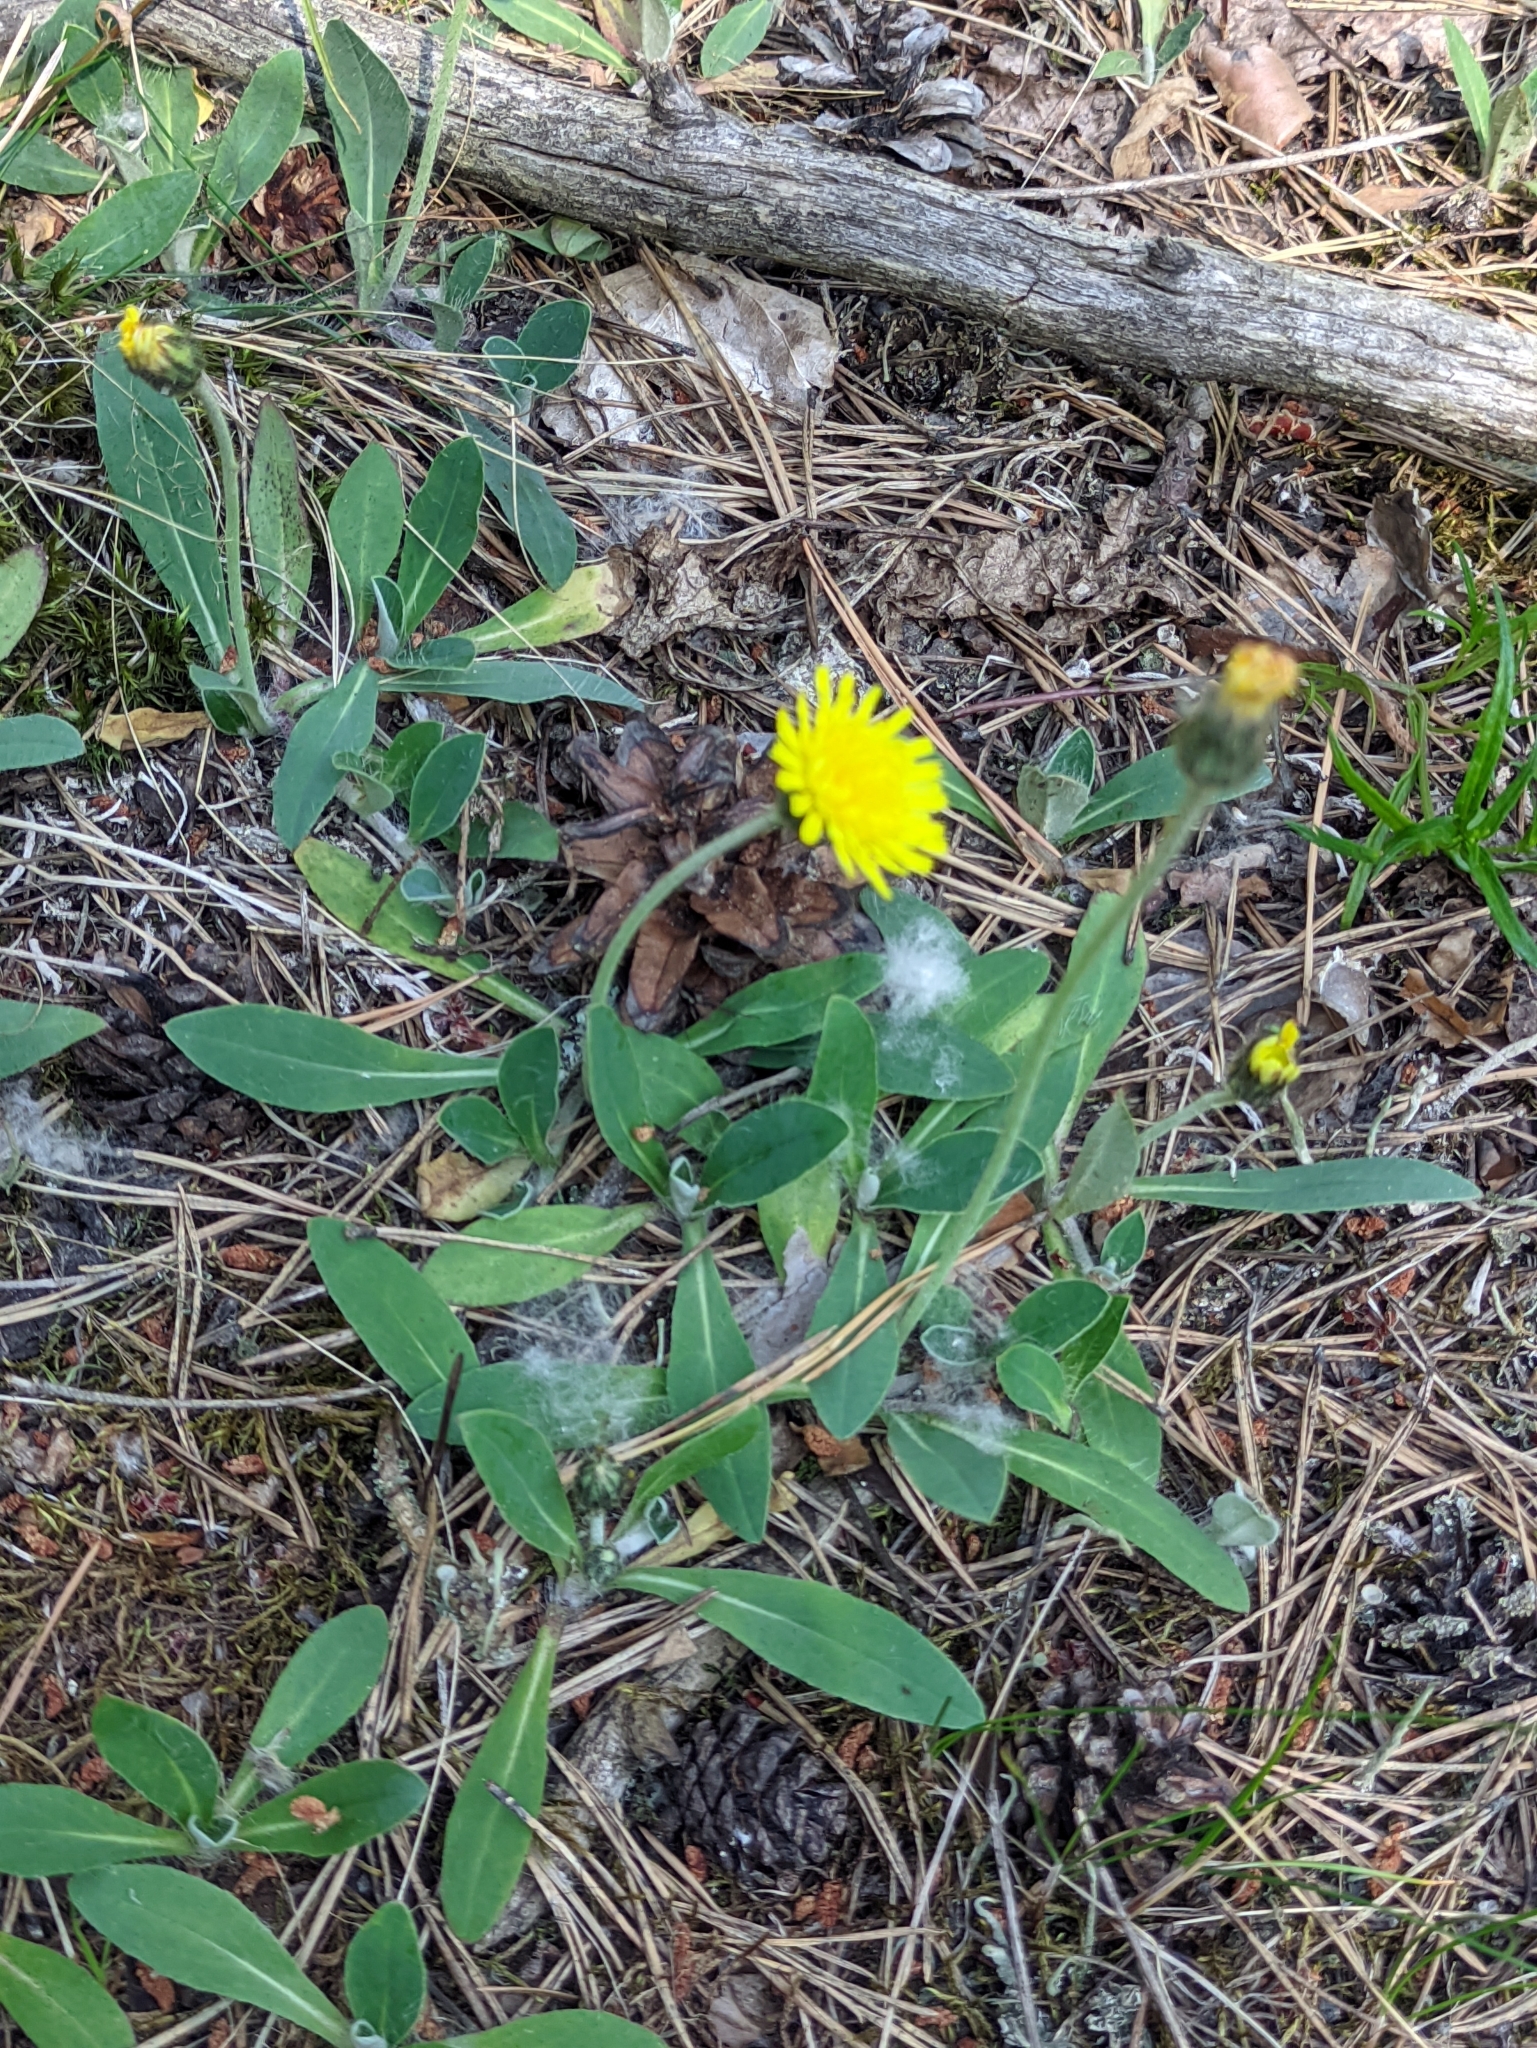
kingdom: Plantae
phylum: Tracheophyta
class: Magnoliopsida
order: Asterales
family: Asteraceae
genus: Pilosella
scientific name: Pilosella officinarum
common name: Mouse-ear hawkweed
